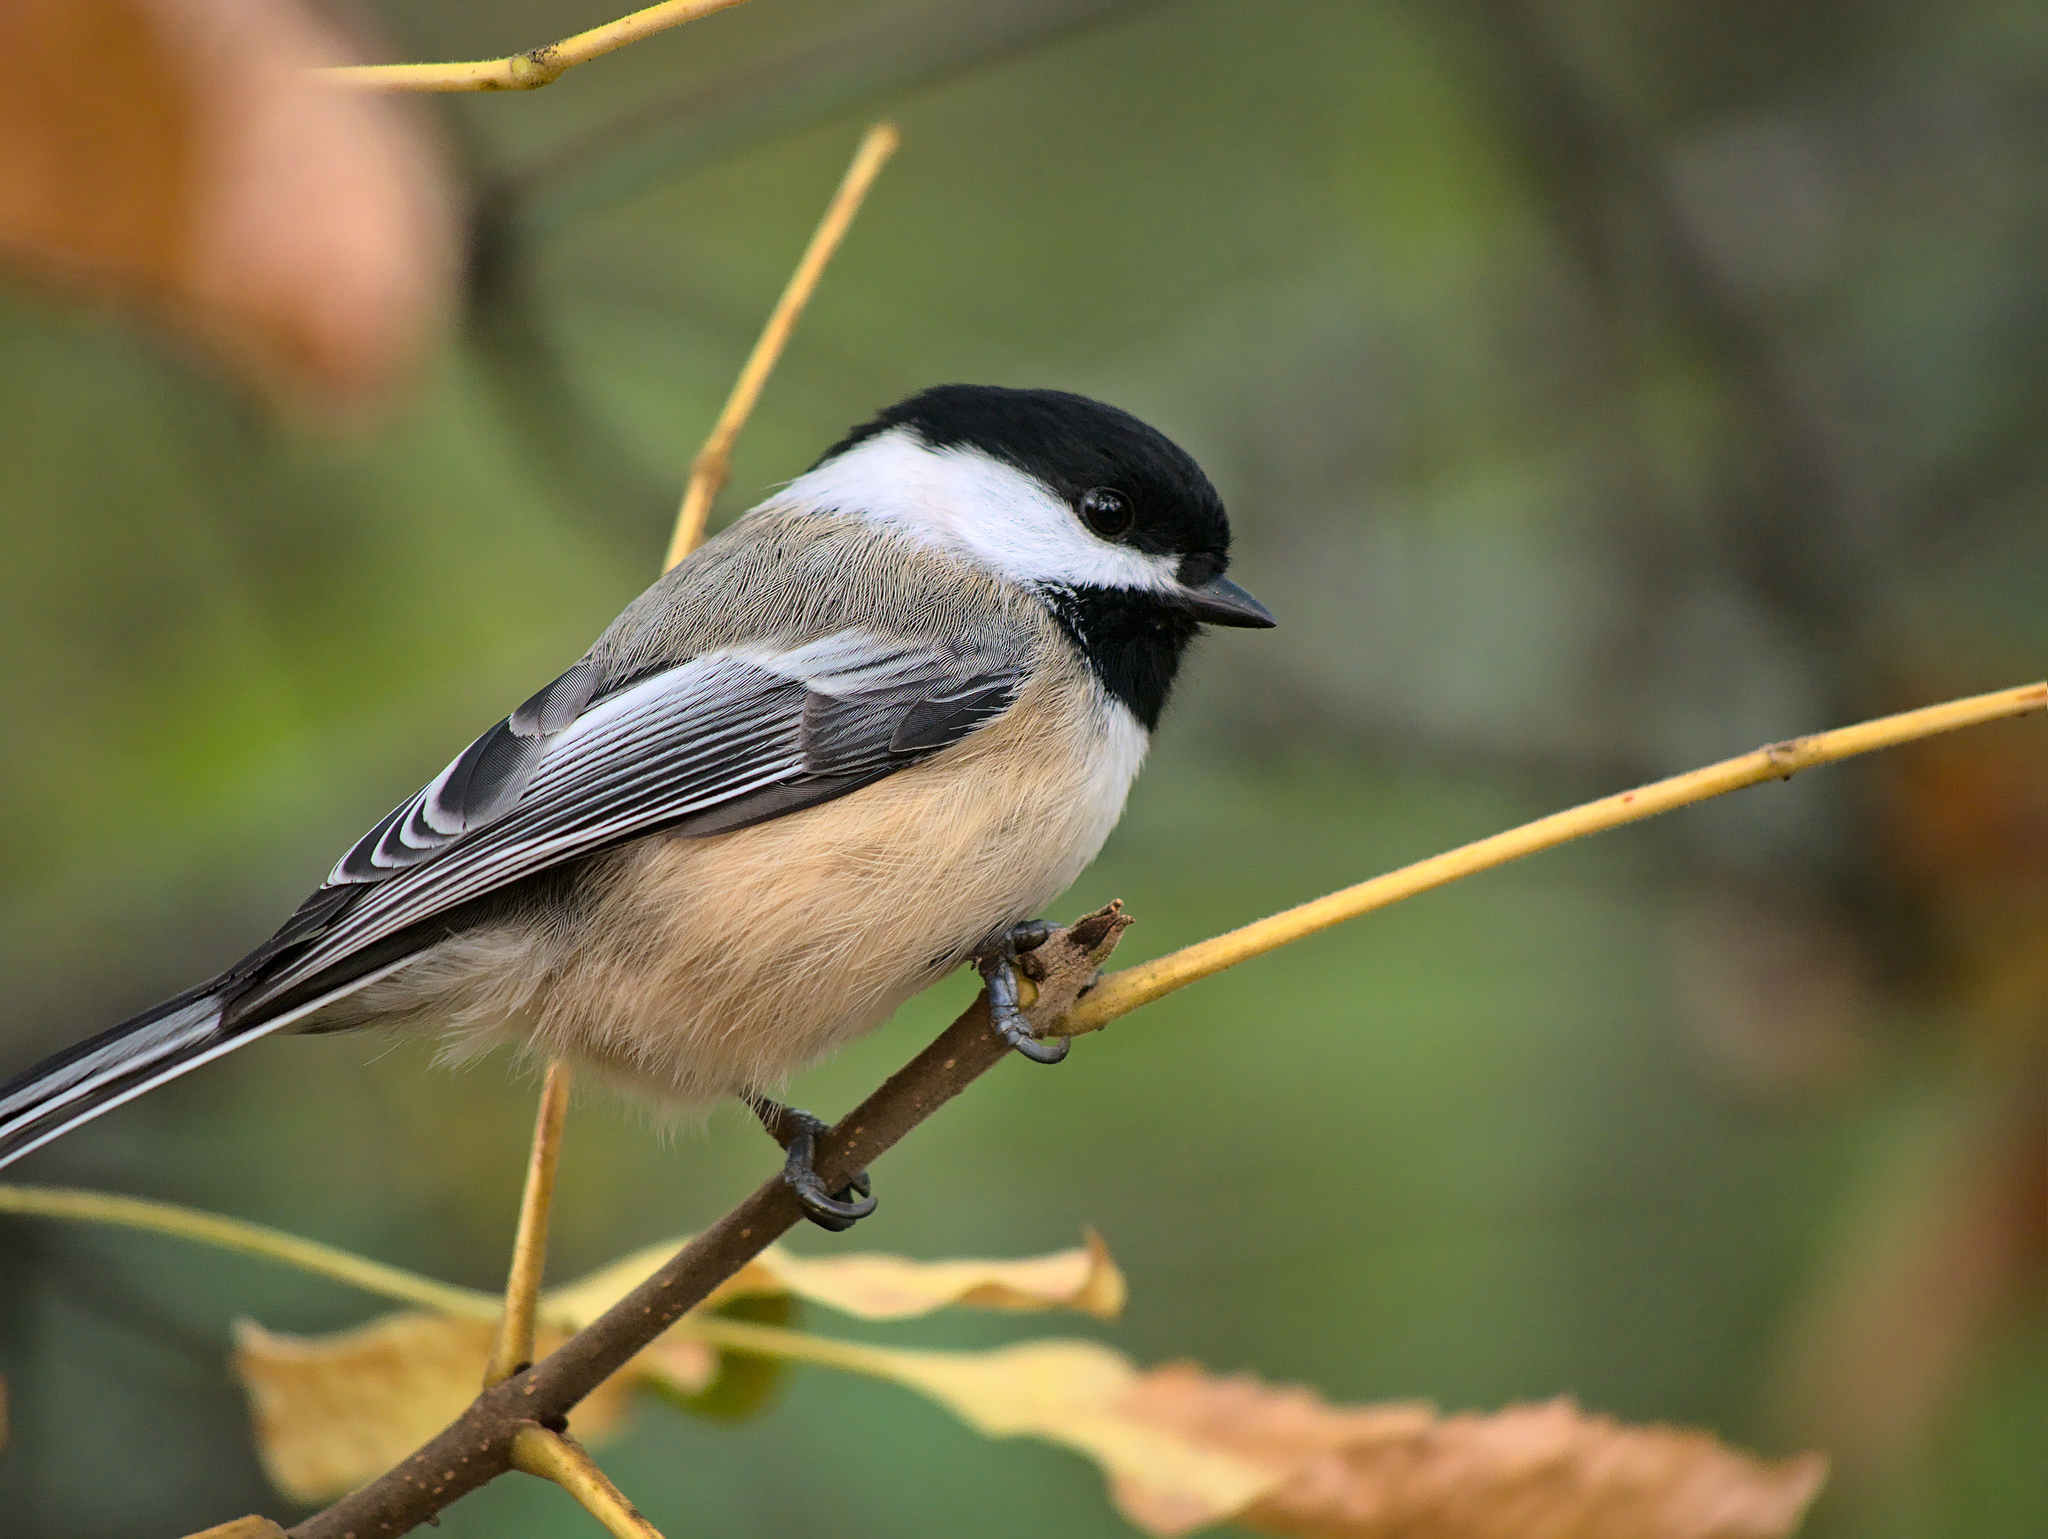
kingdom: Animalia
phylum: Chordata
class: Aves
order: Passeriformes
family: Paridae
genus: Poecile
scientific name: Poecile atricapillus
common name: Black-capped chickadee
